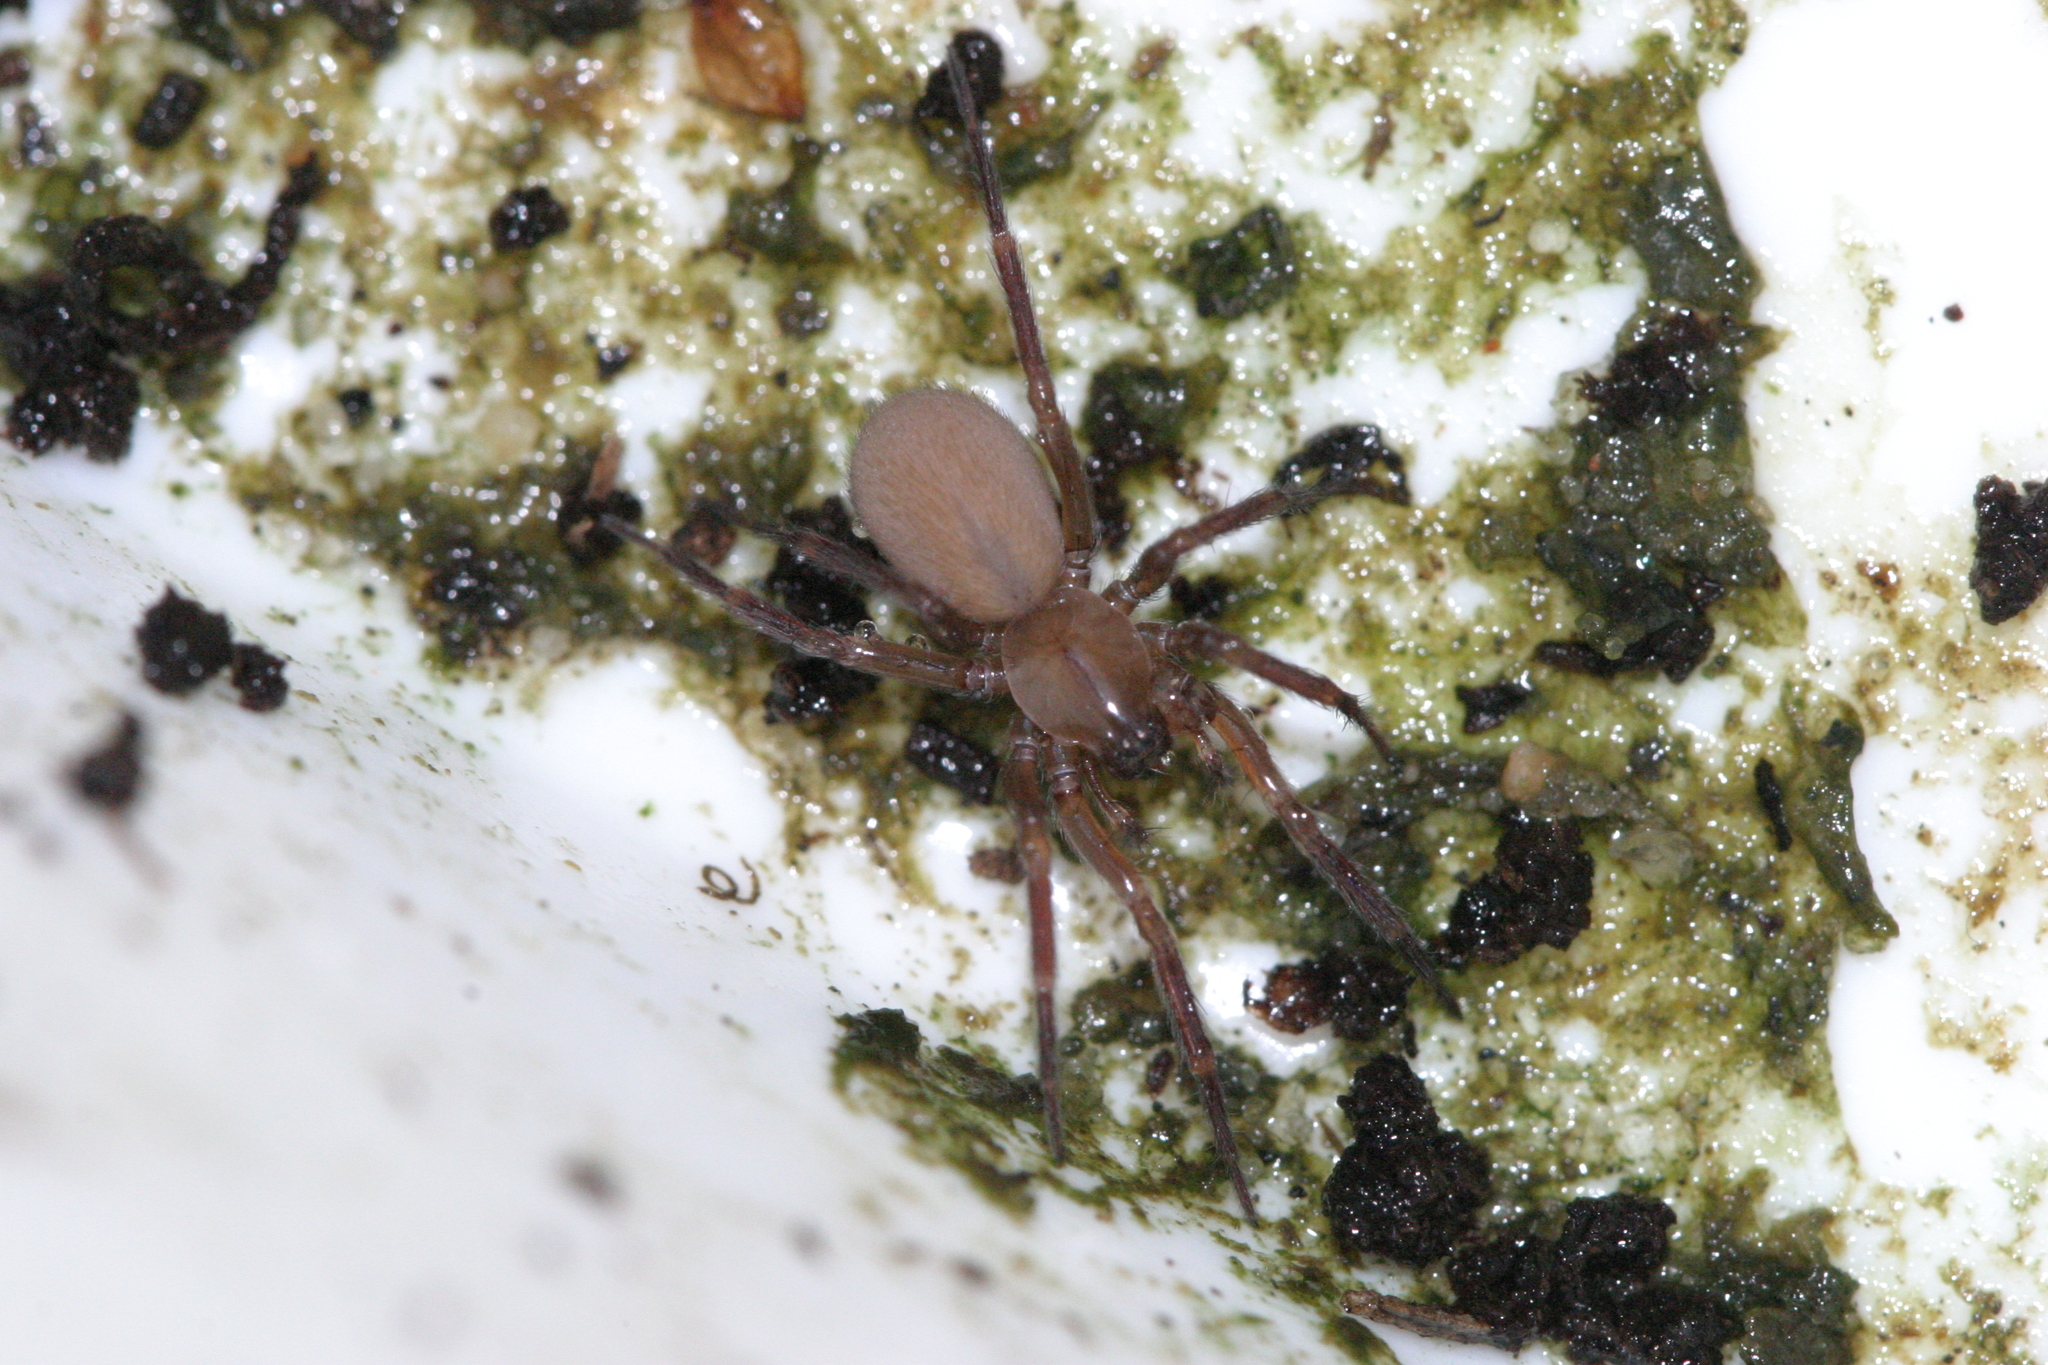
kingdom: Animalia
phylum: Arthropoda
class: Arachnida
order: Araneae
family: Hahniidae
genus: Cicurina
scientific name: Cicurina cicur
